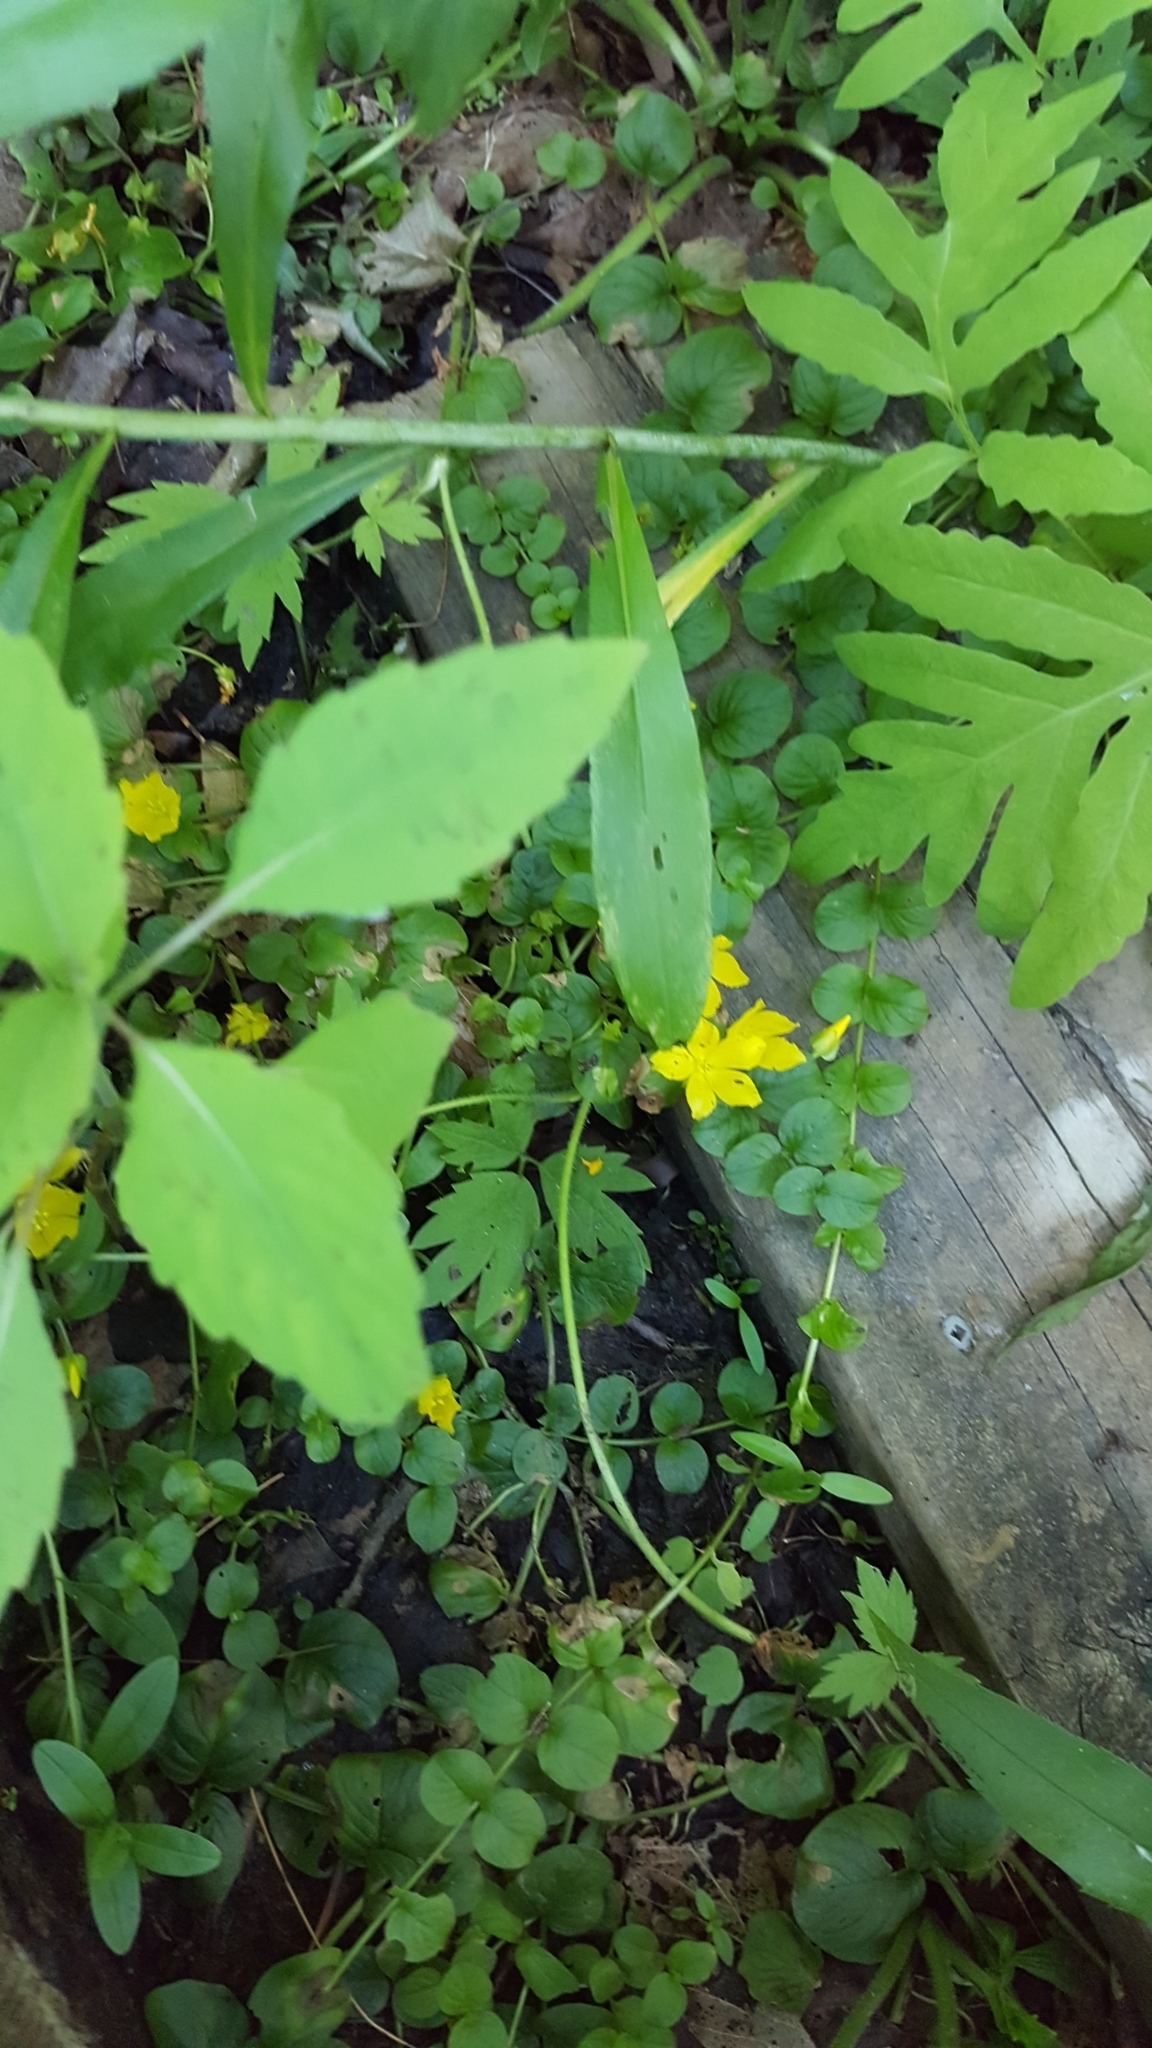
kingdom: Plantae
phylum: Tracheophyta
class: Magnoliopsida
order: Ericales
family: Primulaceae
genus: Lysimachia
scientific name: Lysimachia nummularia
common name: Moneywort
